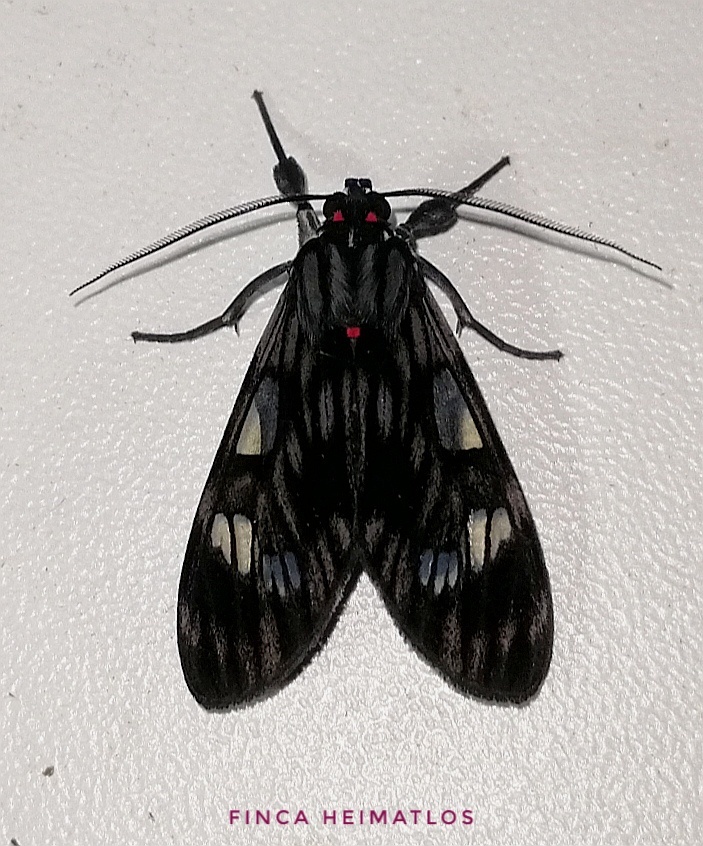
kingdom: Animalia
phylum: Arthropoda
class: Insecta
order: Lepidoptera
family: Erebidae
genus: Episcepsis
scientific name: Episcepsis
